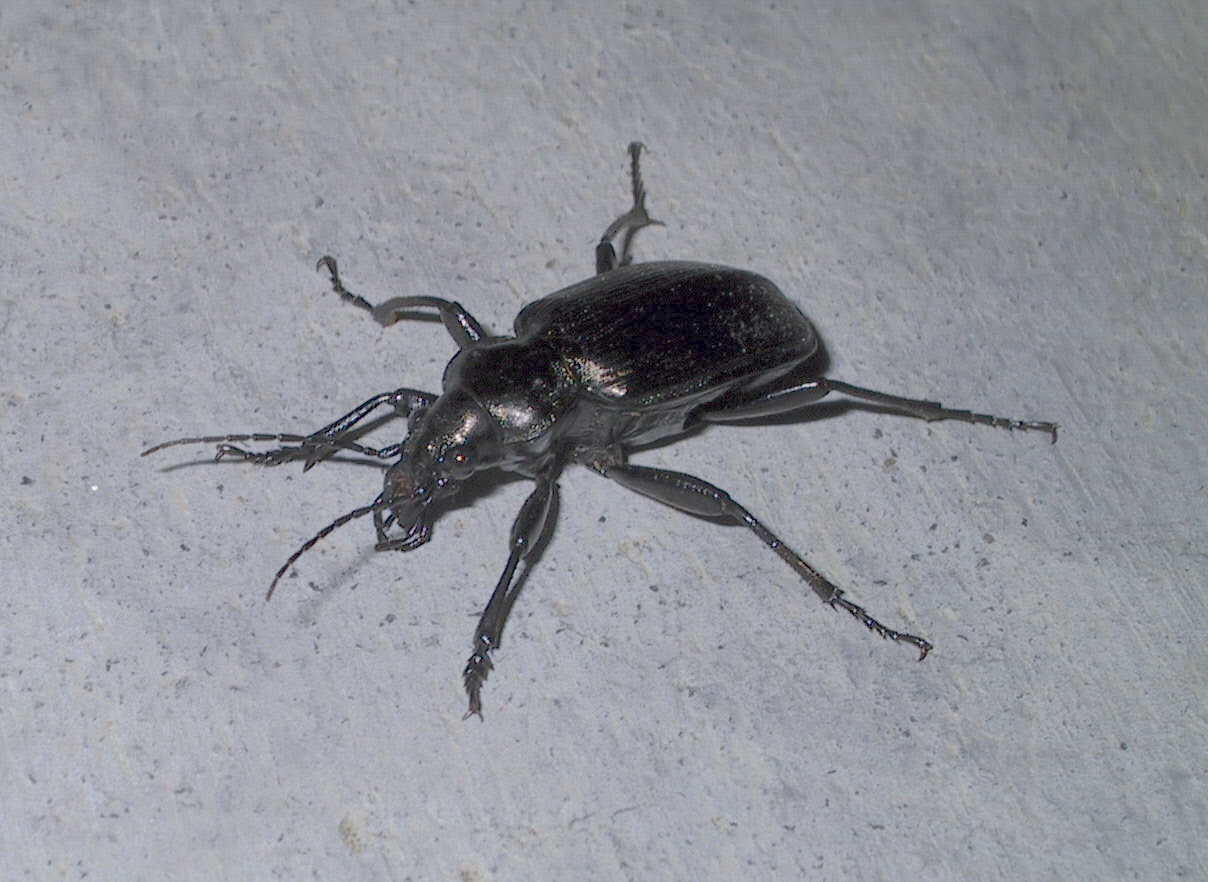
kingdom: Animalia
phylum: Arthropoda
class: Insecta
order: Coleoptera
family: Carabidae
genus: Calosoma
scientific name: Calosoma sayi
